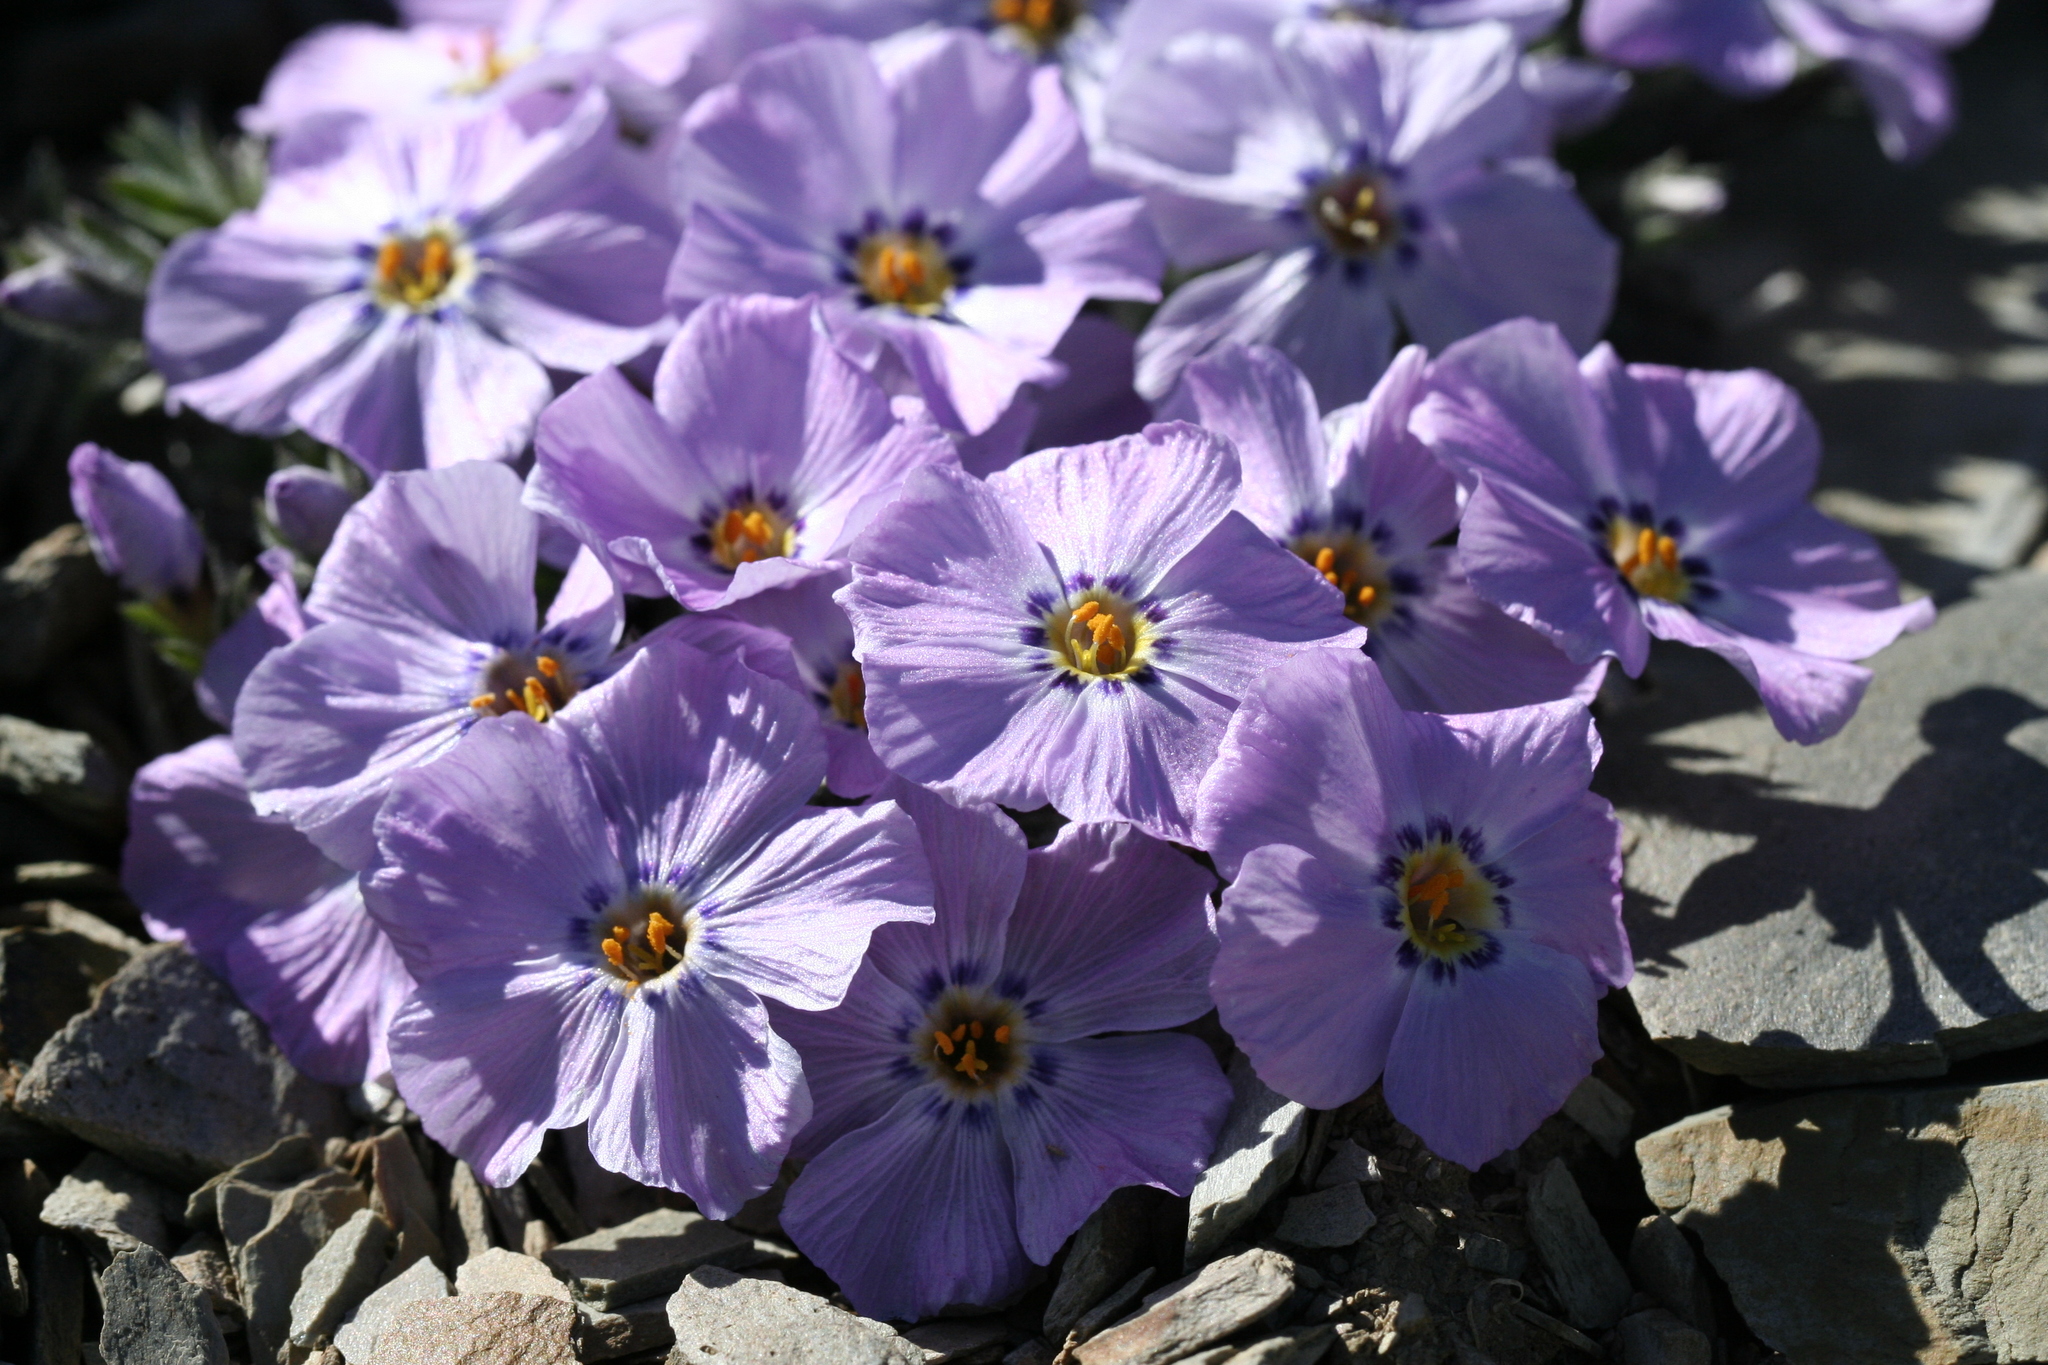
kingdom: Plantae
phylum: Tracheophyta
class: Magnoliopsida
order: Ericales
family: Polemoniaceae
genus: Phlox
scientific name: Phlox richardsonii
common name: Richardson's phlox
